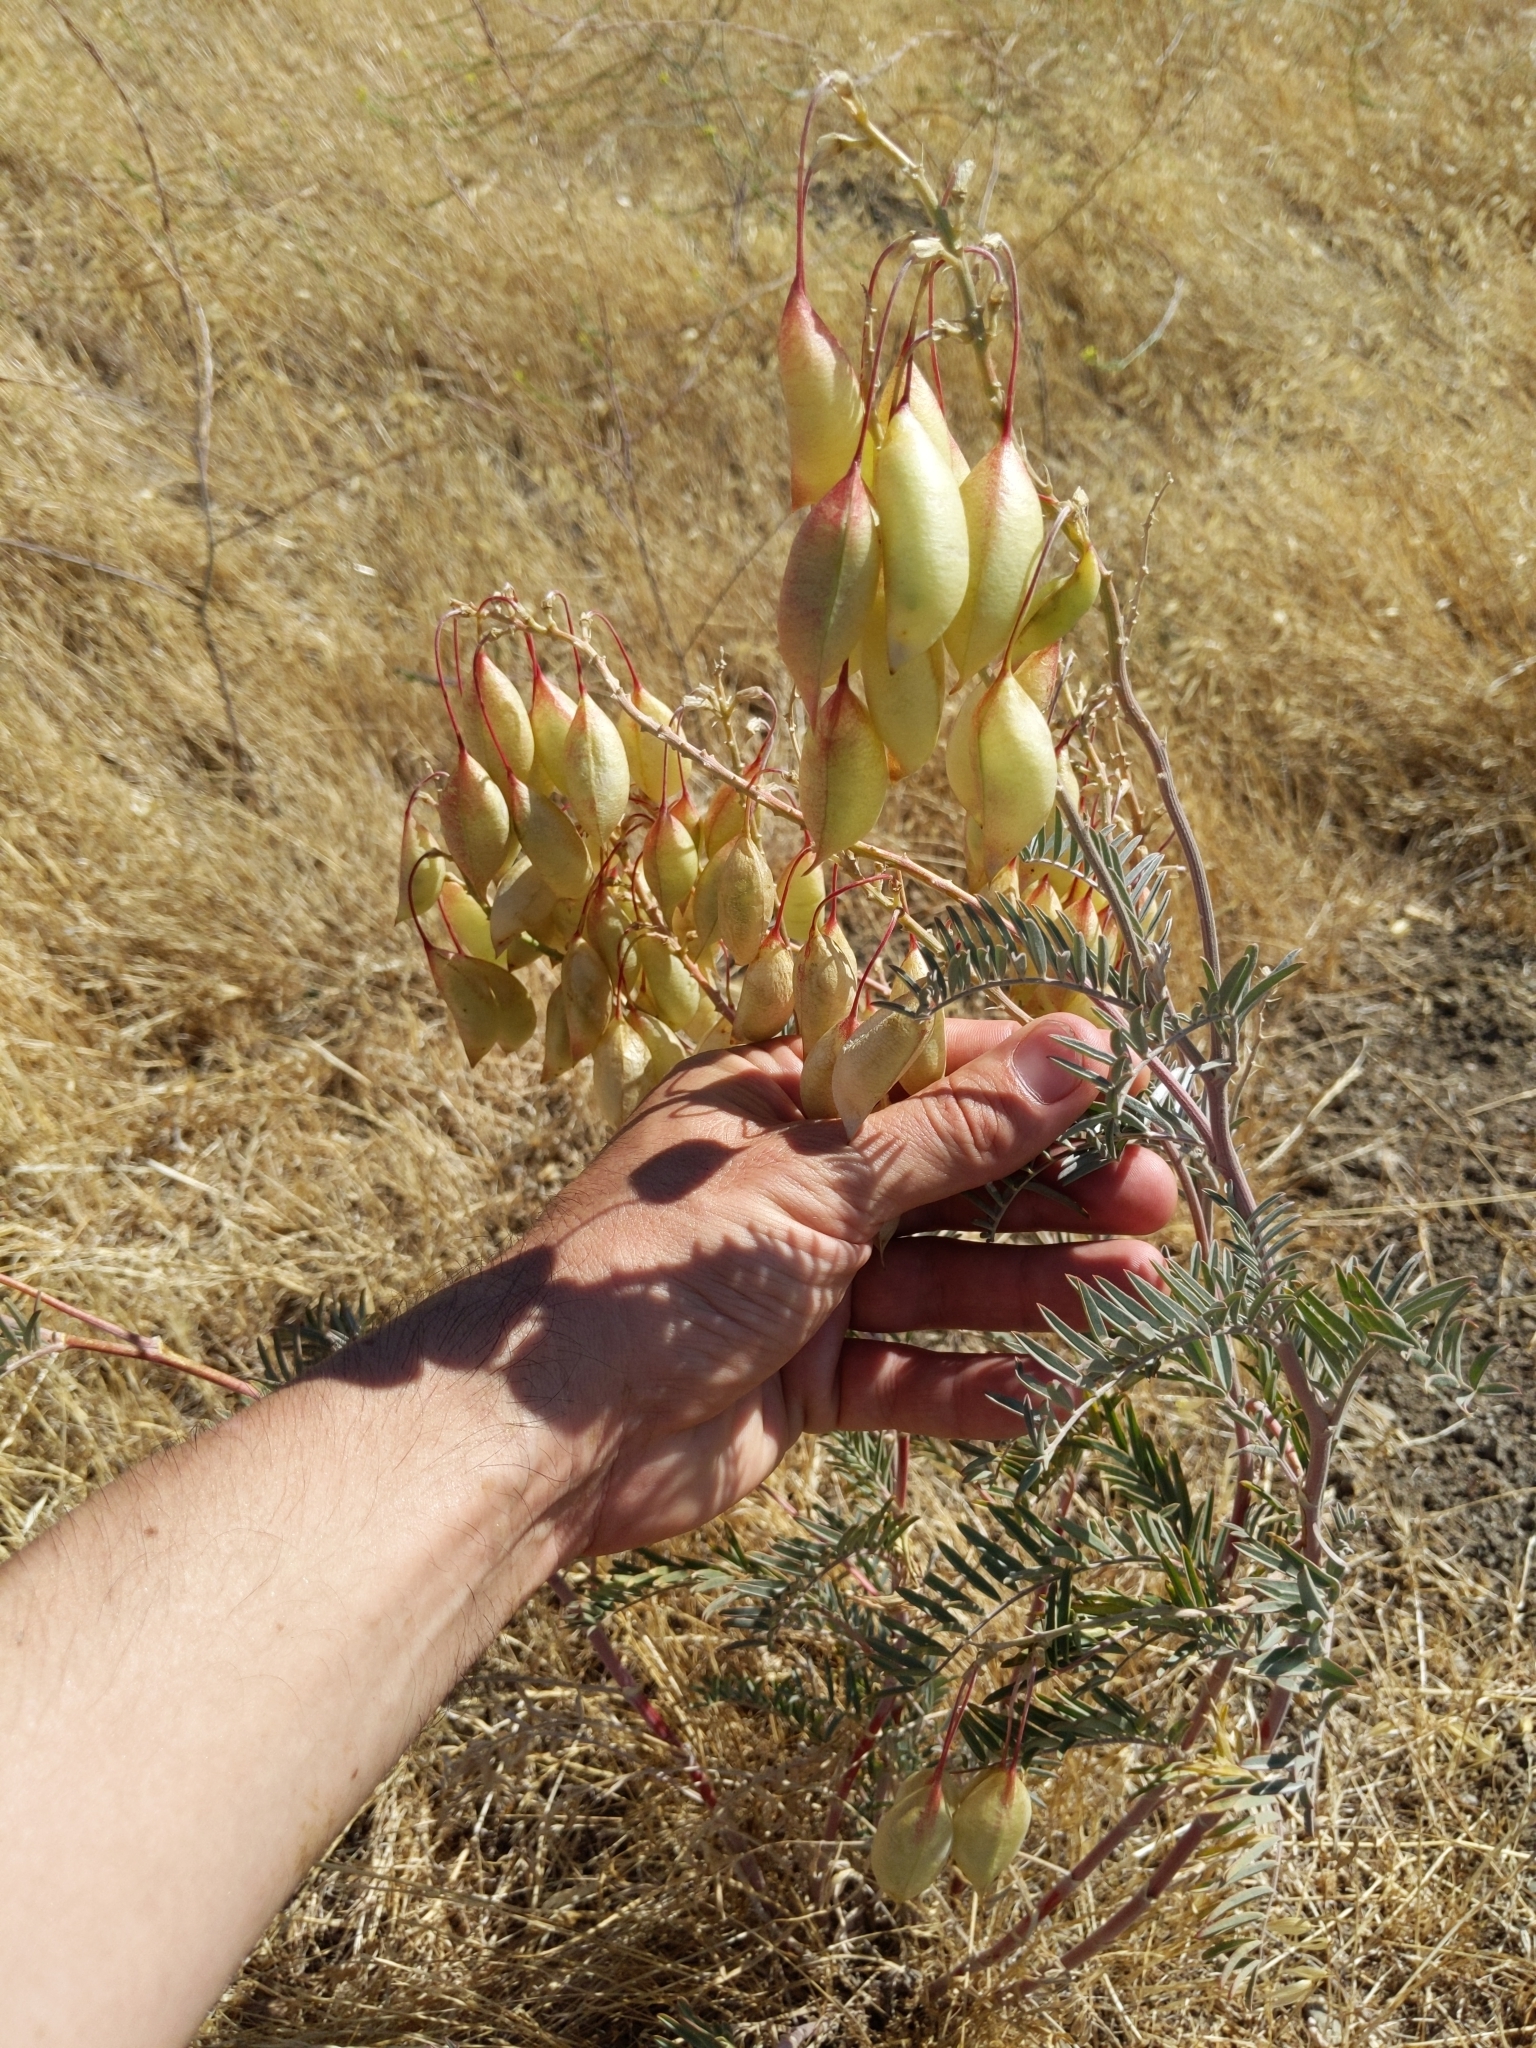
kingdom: Plantae
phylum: Tracheophyta
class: Magnoliopsida
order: Fabales
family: Fabaceae
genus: Astragalus
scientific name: Astragalus asymmetricus
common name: Horse locoweed
